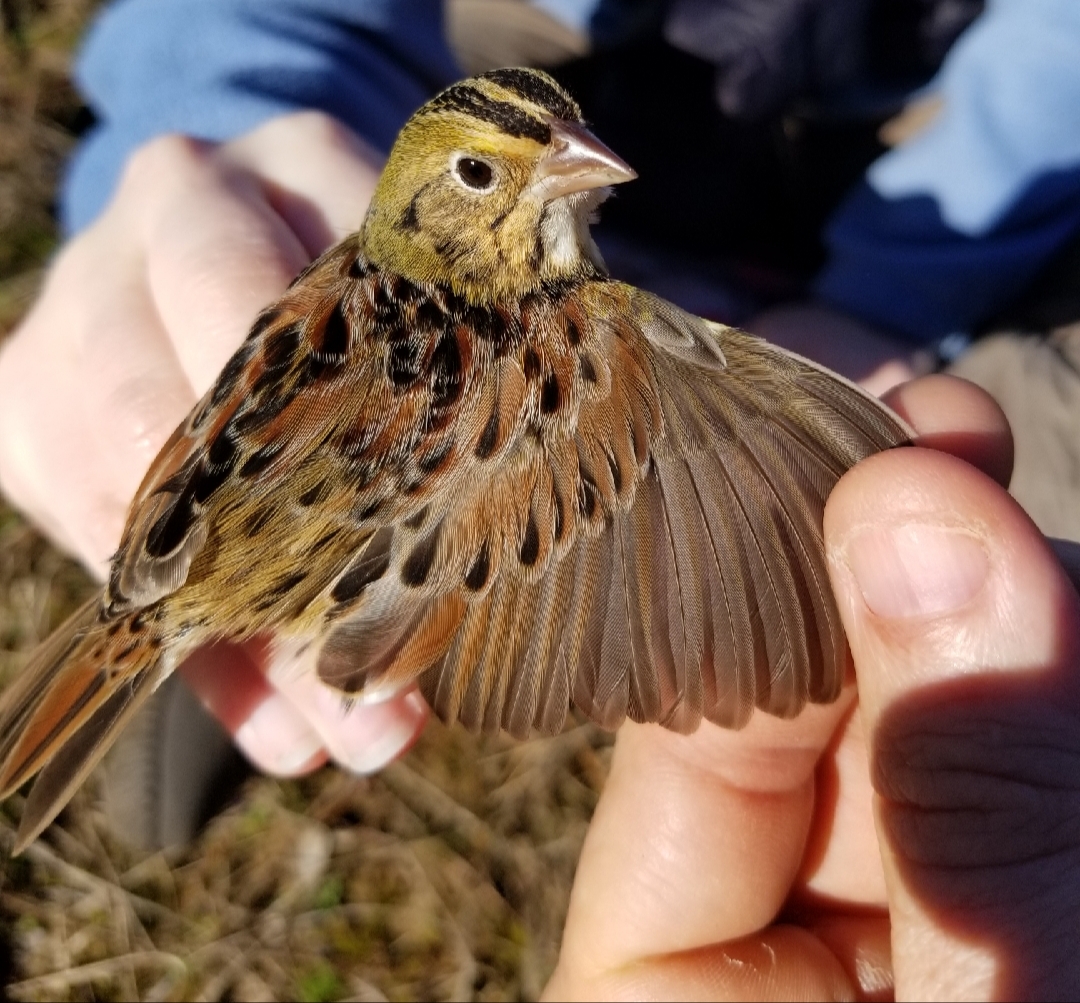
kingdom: Animalia
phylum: Chordata
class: Aves
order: Passeriformes
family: Passerellidae
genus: Centronyx
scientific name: Centronyx henslowii
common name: Henslow's sparrow
